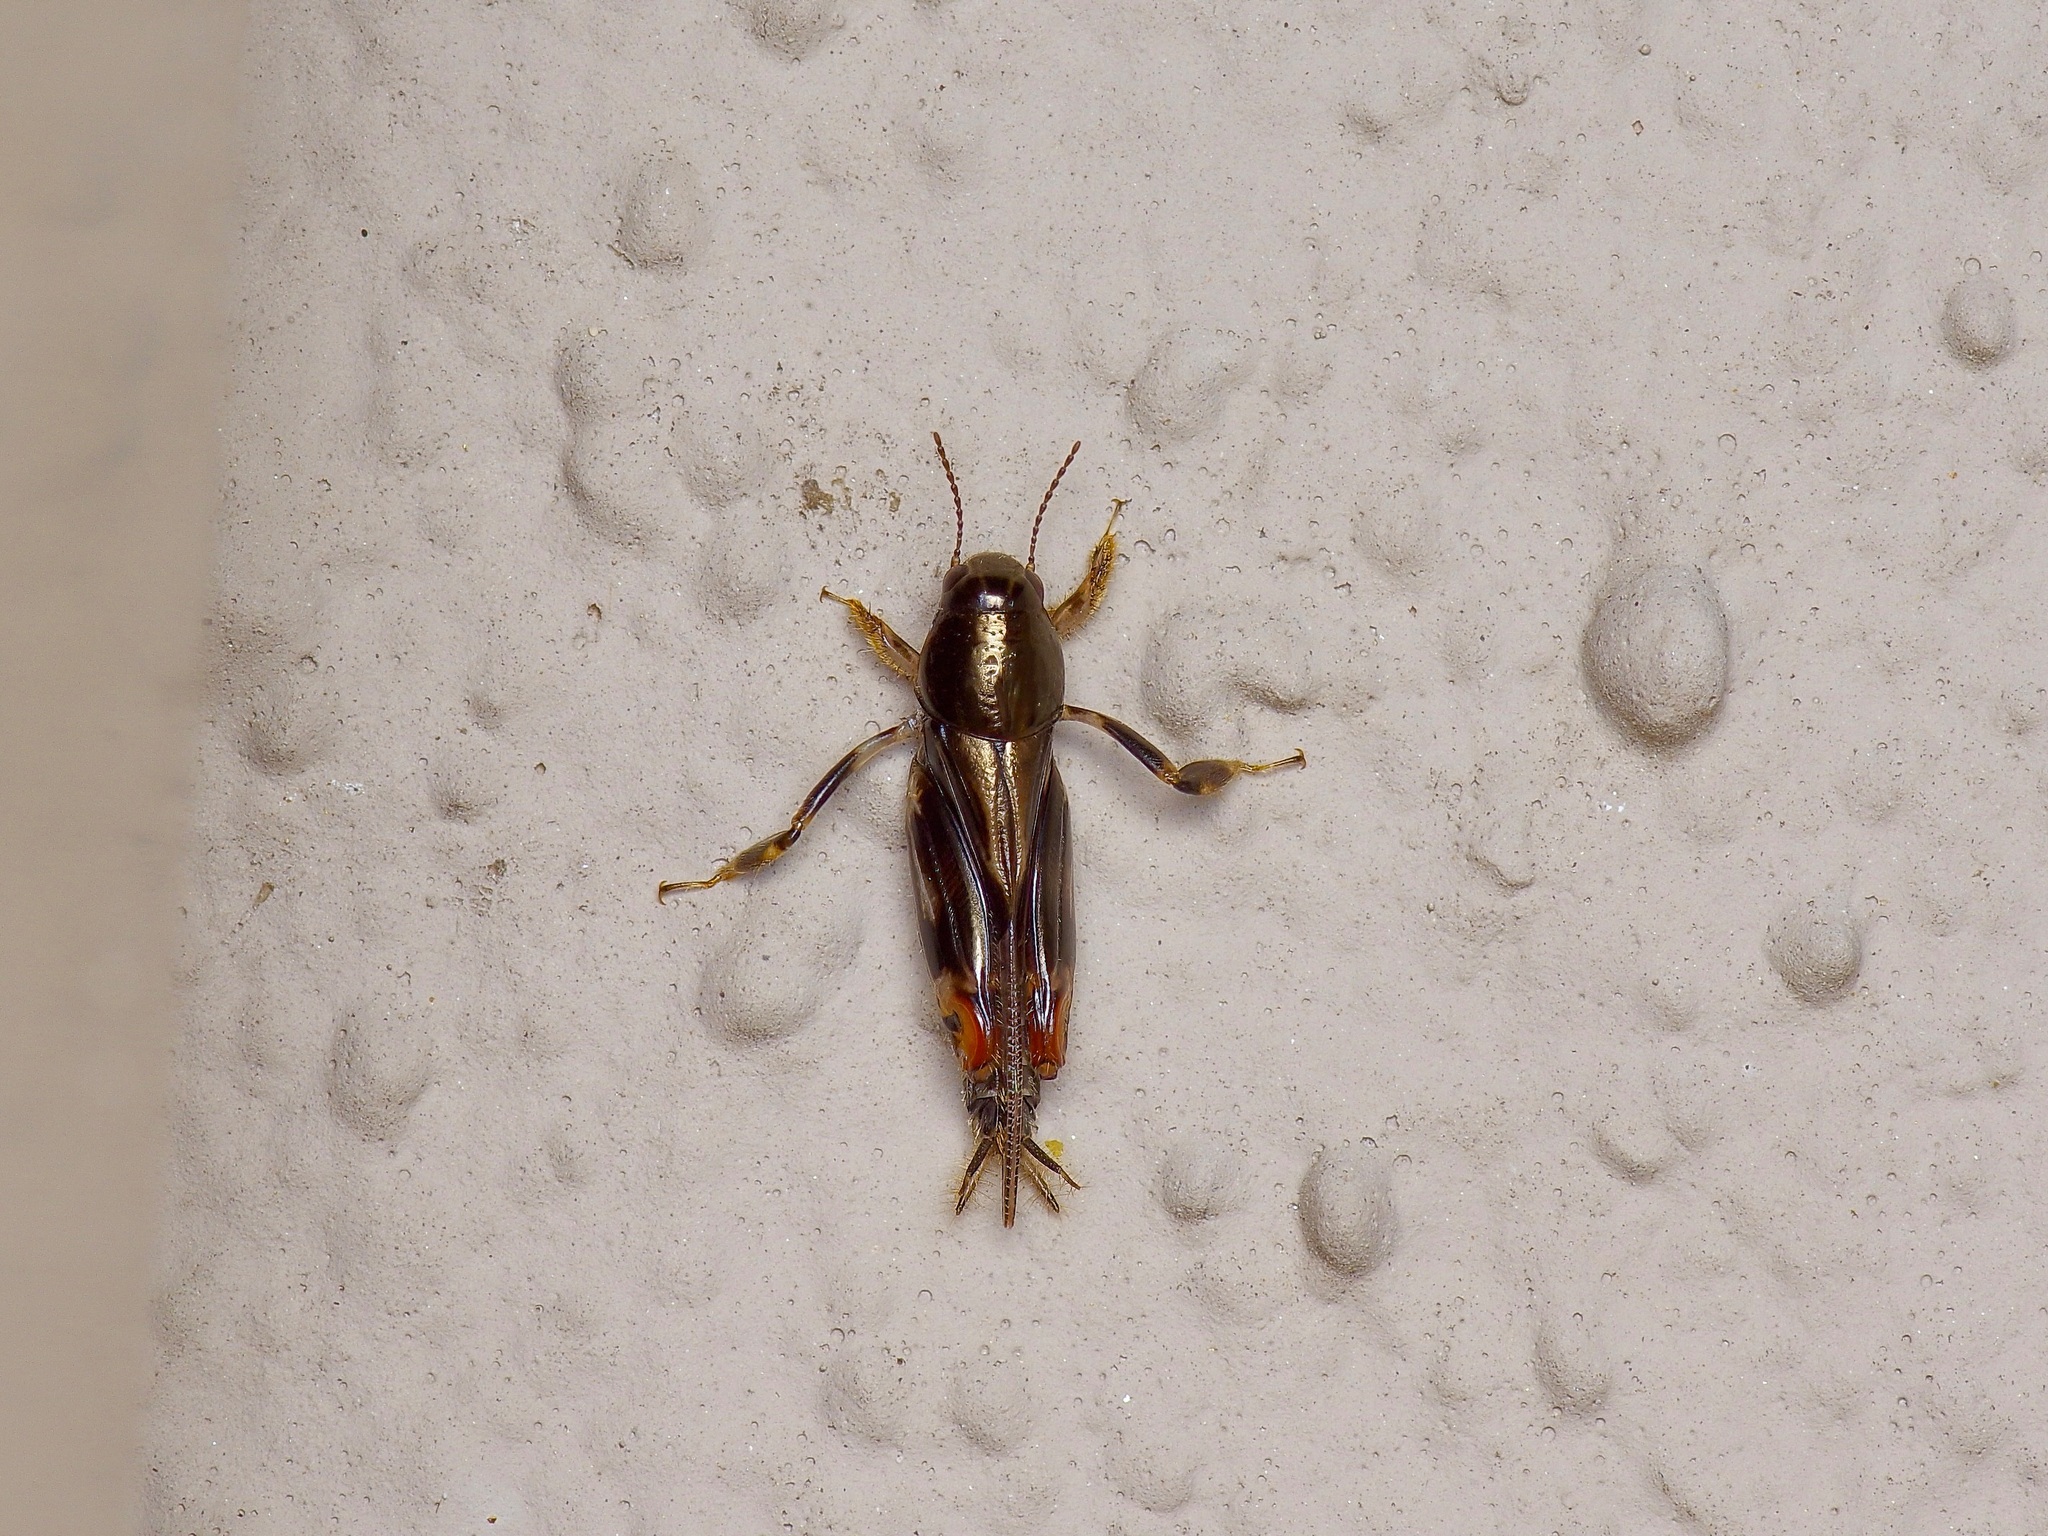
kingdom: Animalia
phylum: Arthropoda
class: Insecta
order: Orthoptera
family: Tridactylidae
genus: Neotridactylus
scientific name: Neotridactylus apicialis
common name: Larger pygmy locust
